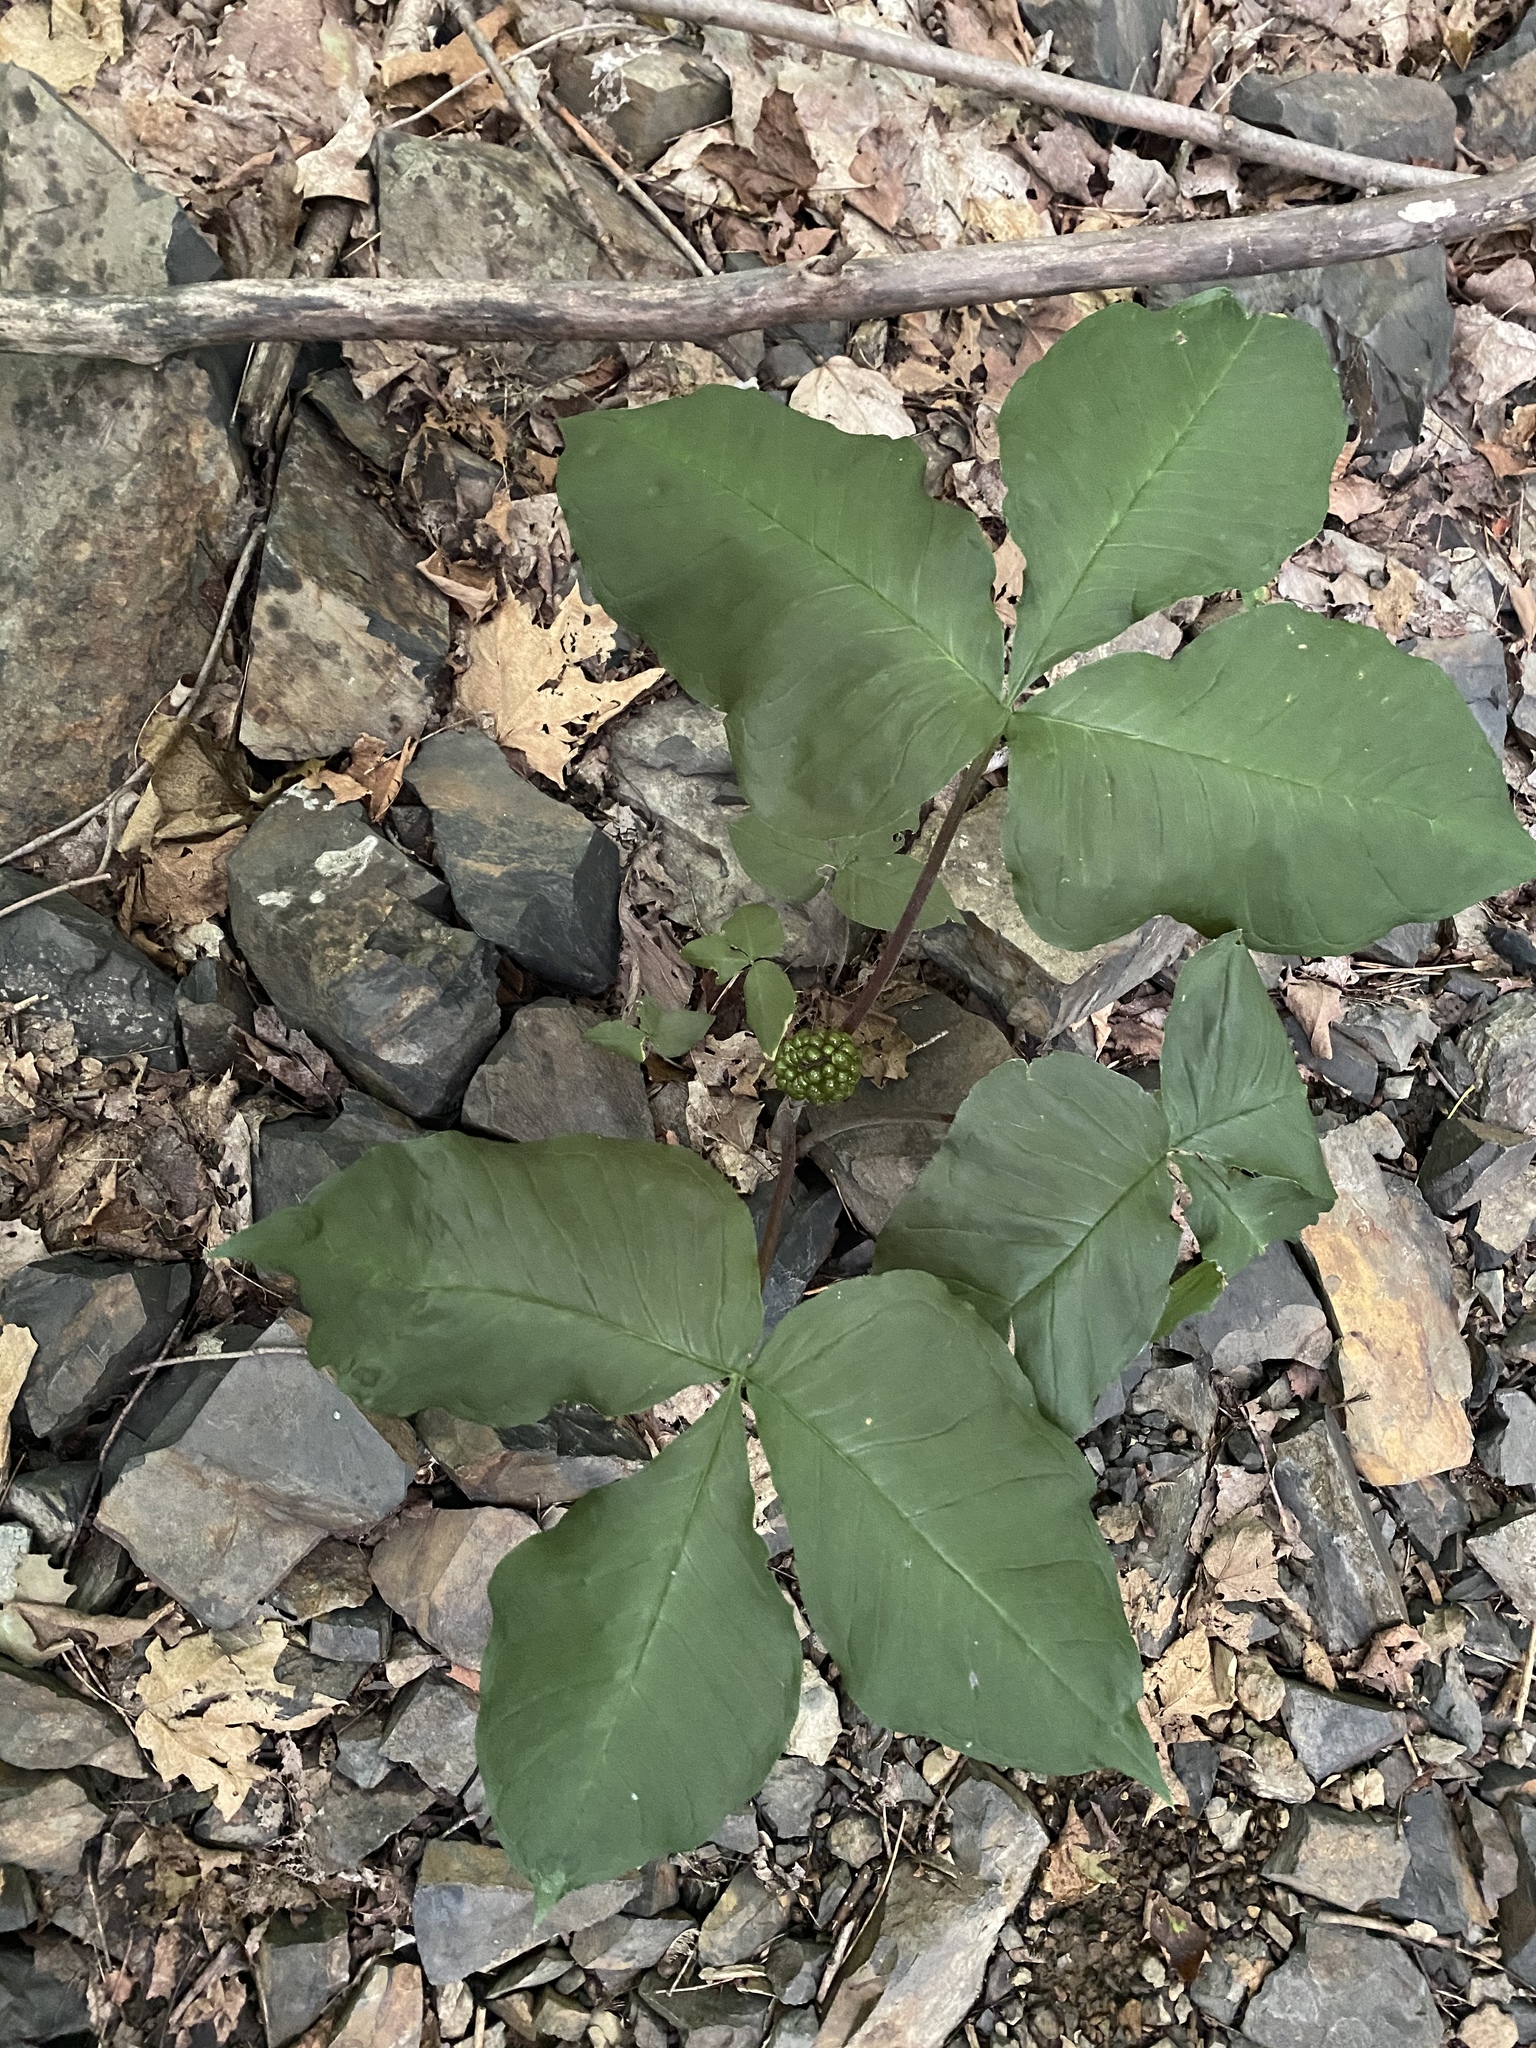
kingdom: Plantae
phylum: Tracheophyta
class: Liliopsida
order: Alismatales
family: Araceae
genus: Arisaema
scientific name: Arisaema triphyllum
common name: Jack-in-the-pulpit
